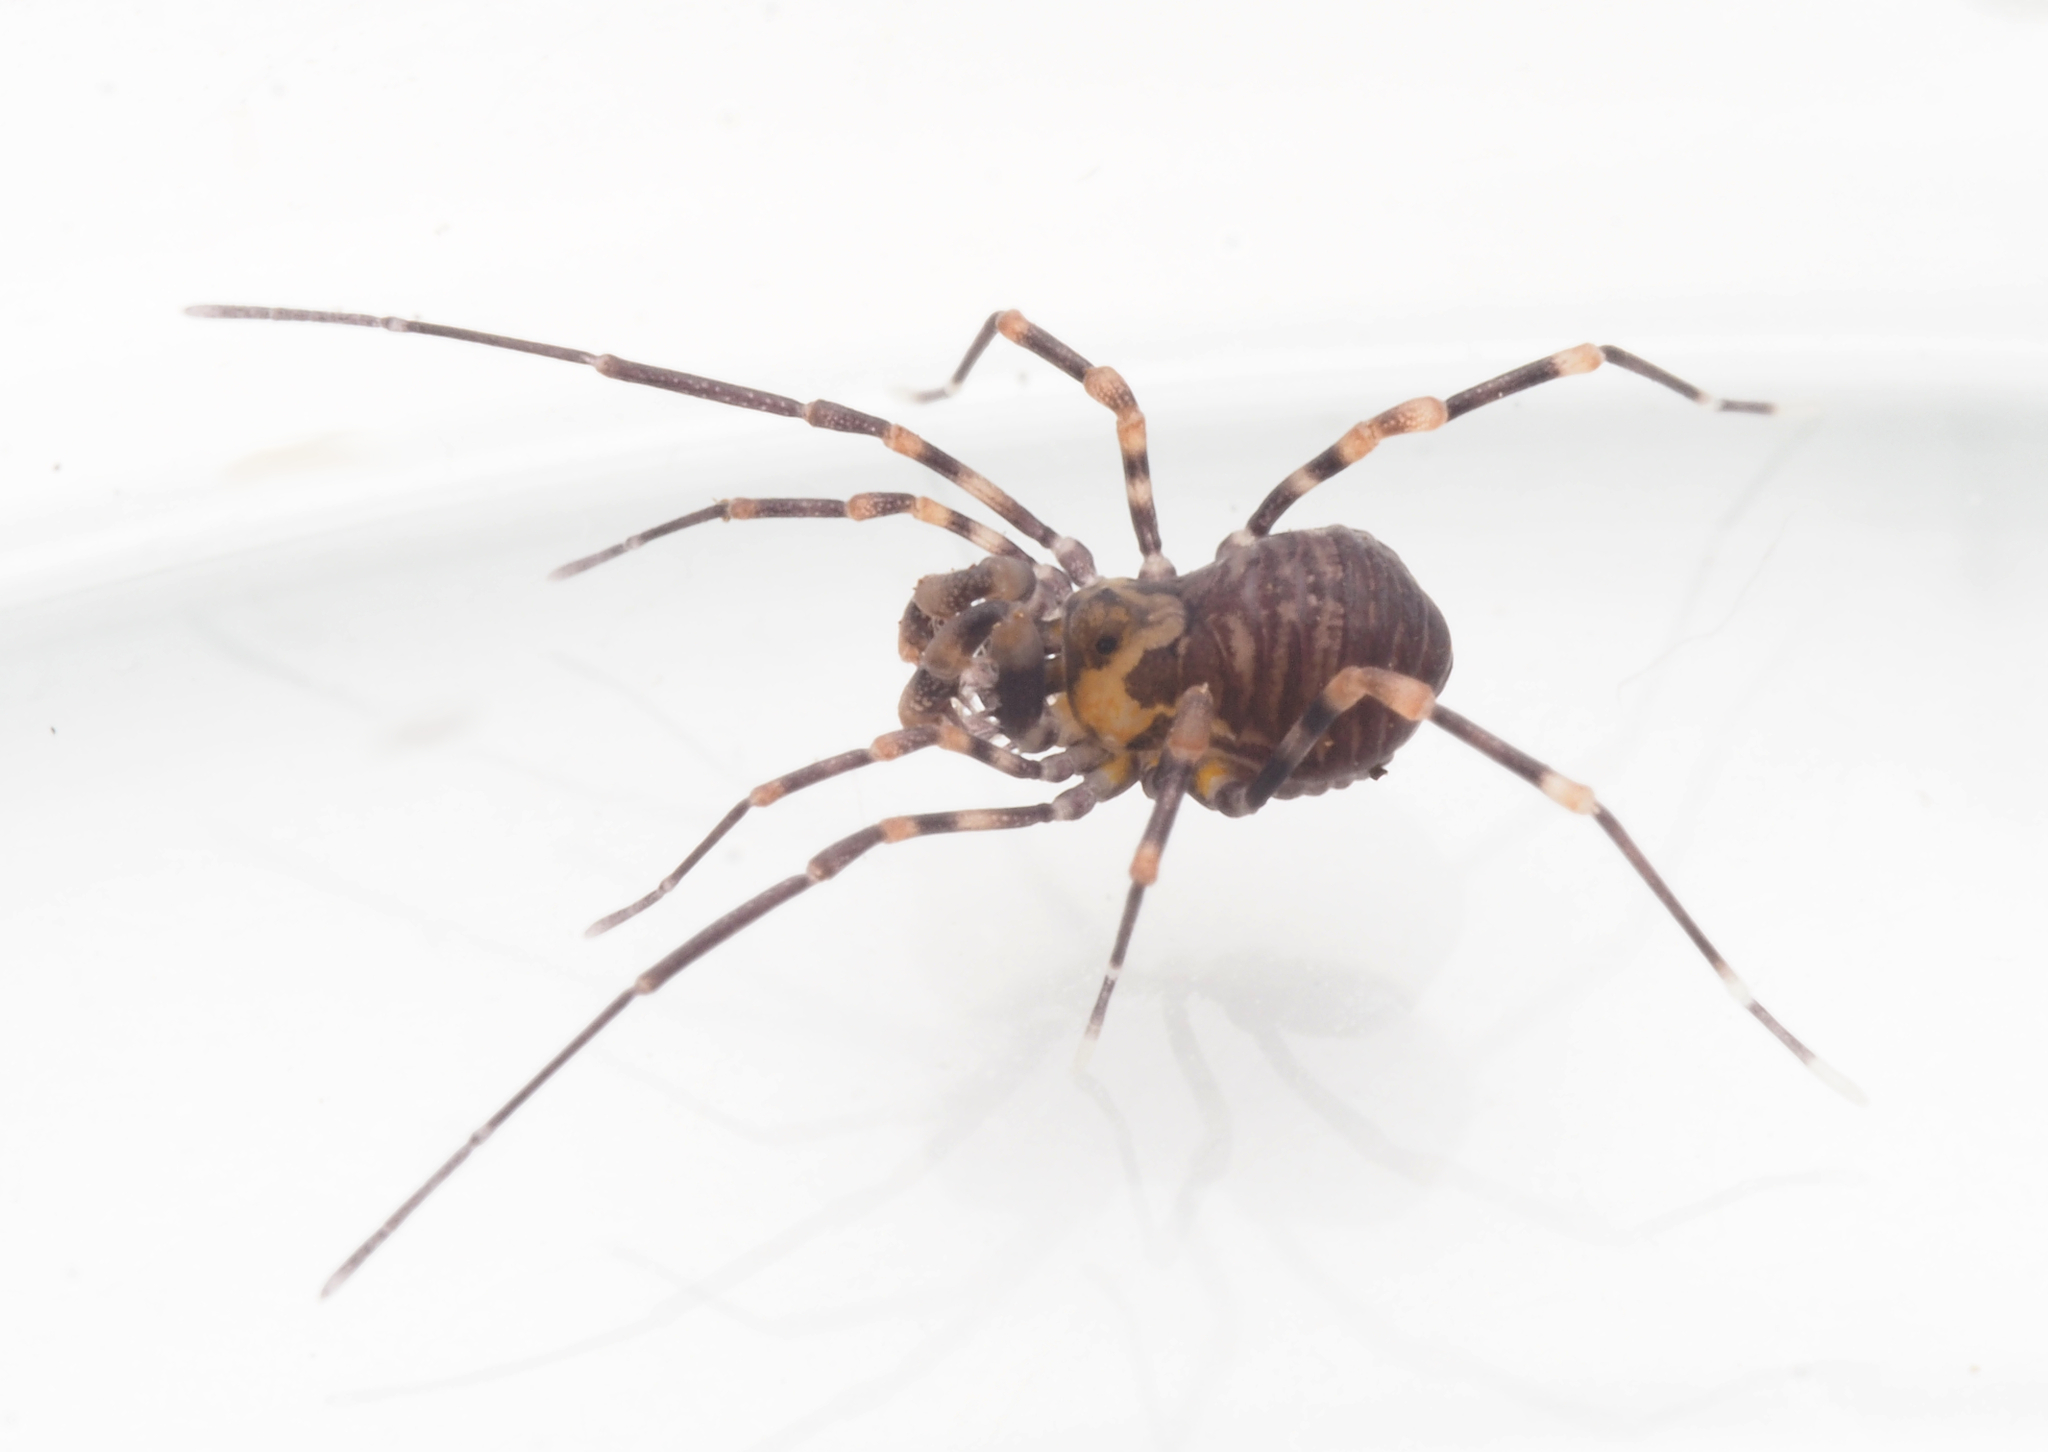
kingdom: Animalia
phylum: Arthropoda
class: Arachnida
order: Opiliones
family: Phalangodidae
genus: Bogania
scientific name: Bogania
